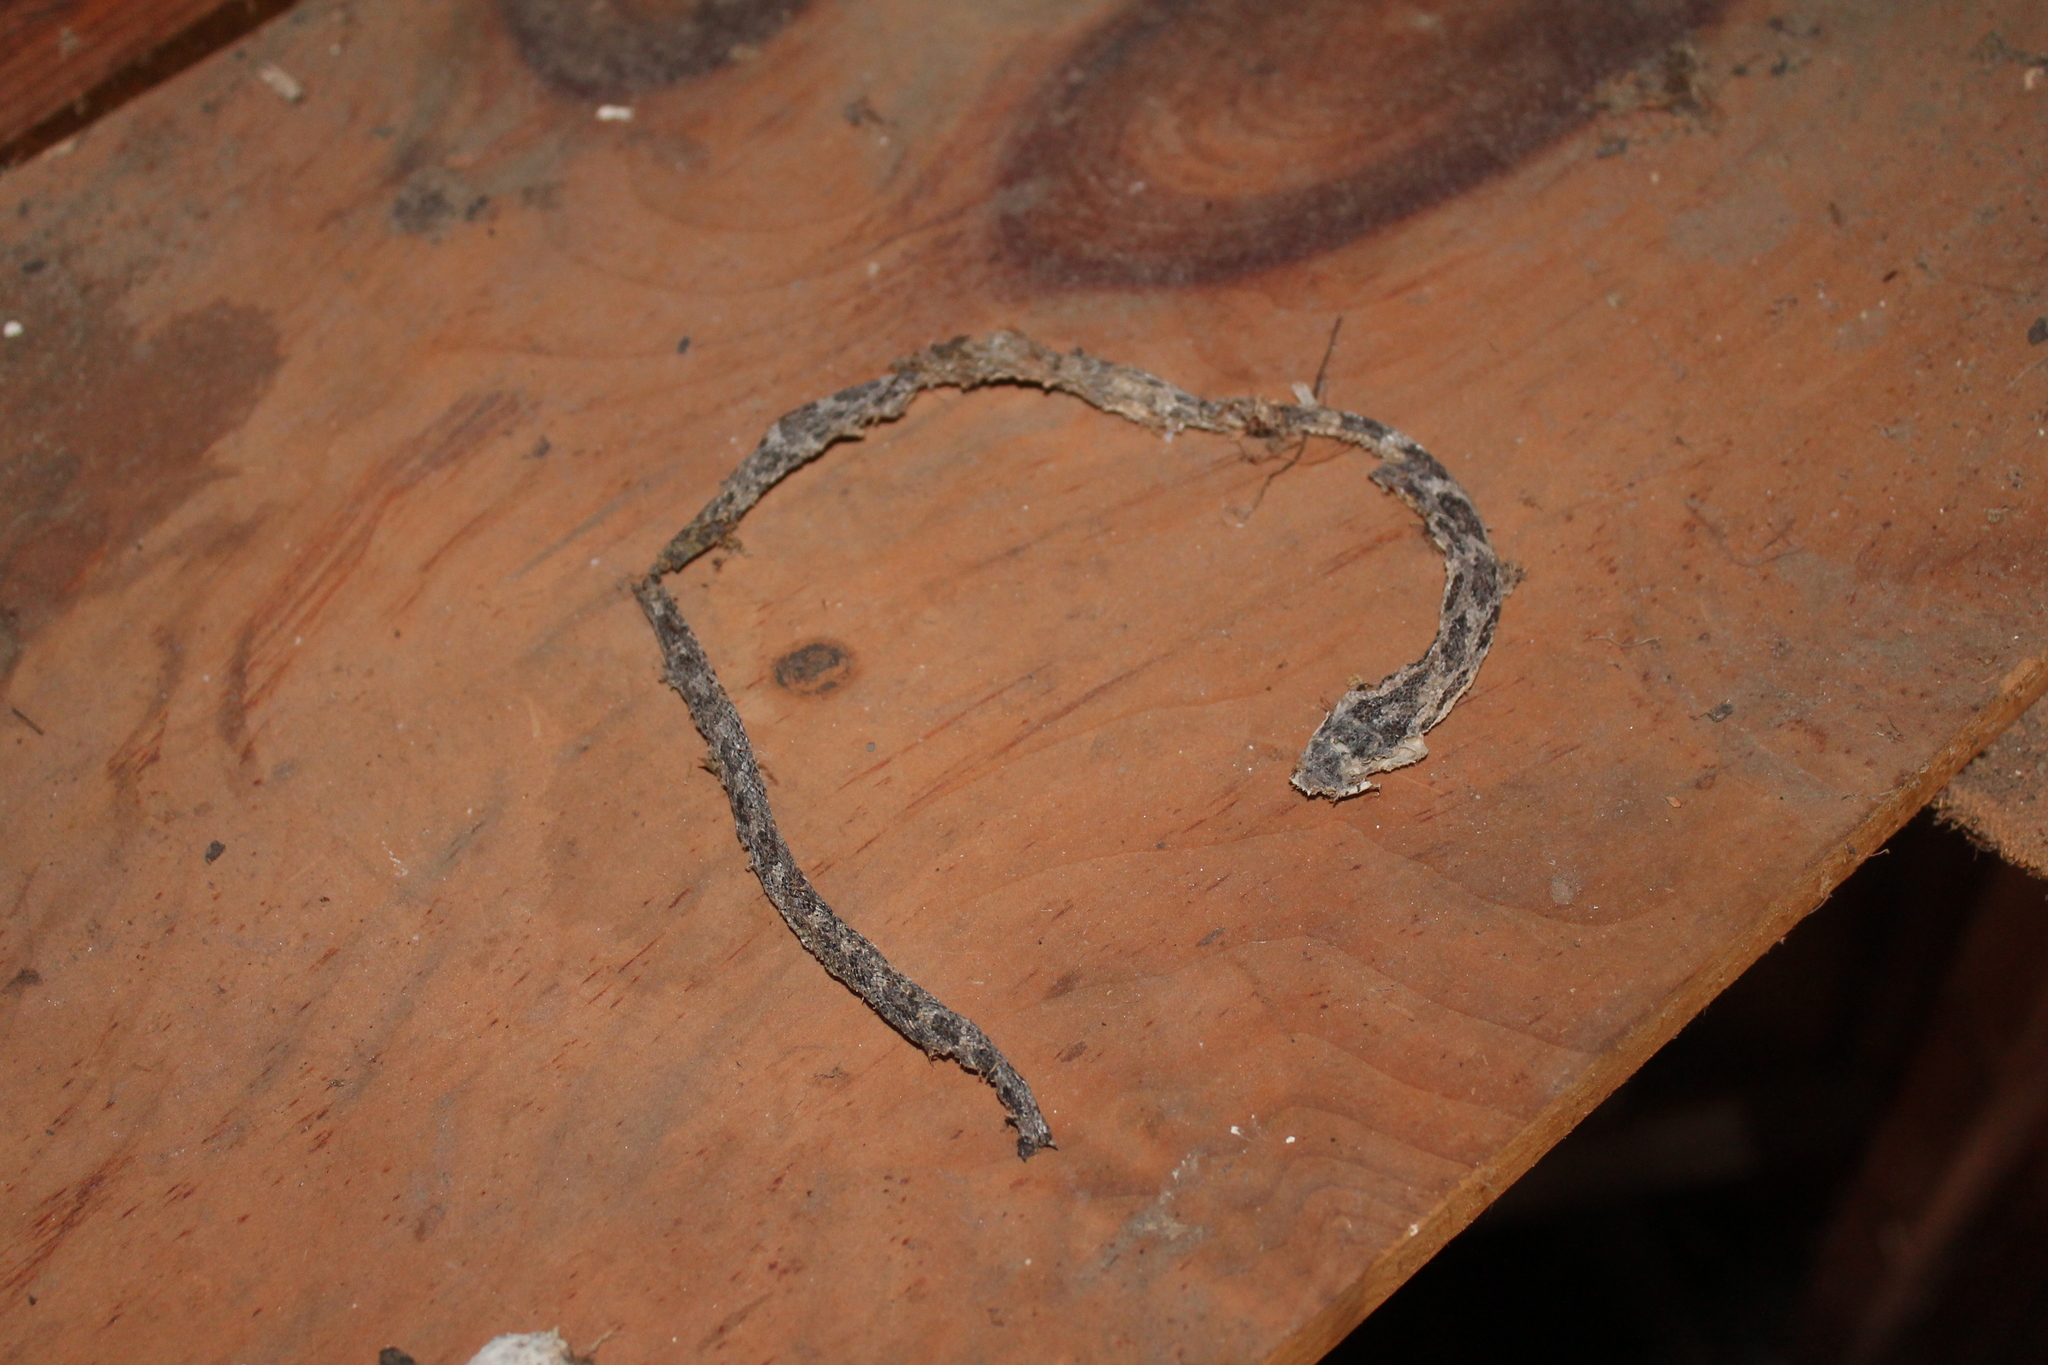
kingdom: Animalia
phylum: Chordata
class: Squamata
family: Colubridae
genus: Pantherophis
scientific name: Pantherophis alleghaniensis
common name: Eastern rat snake
